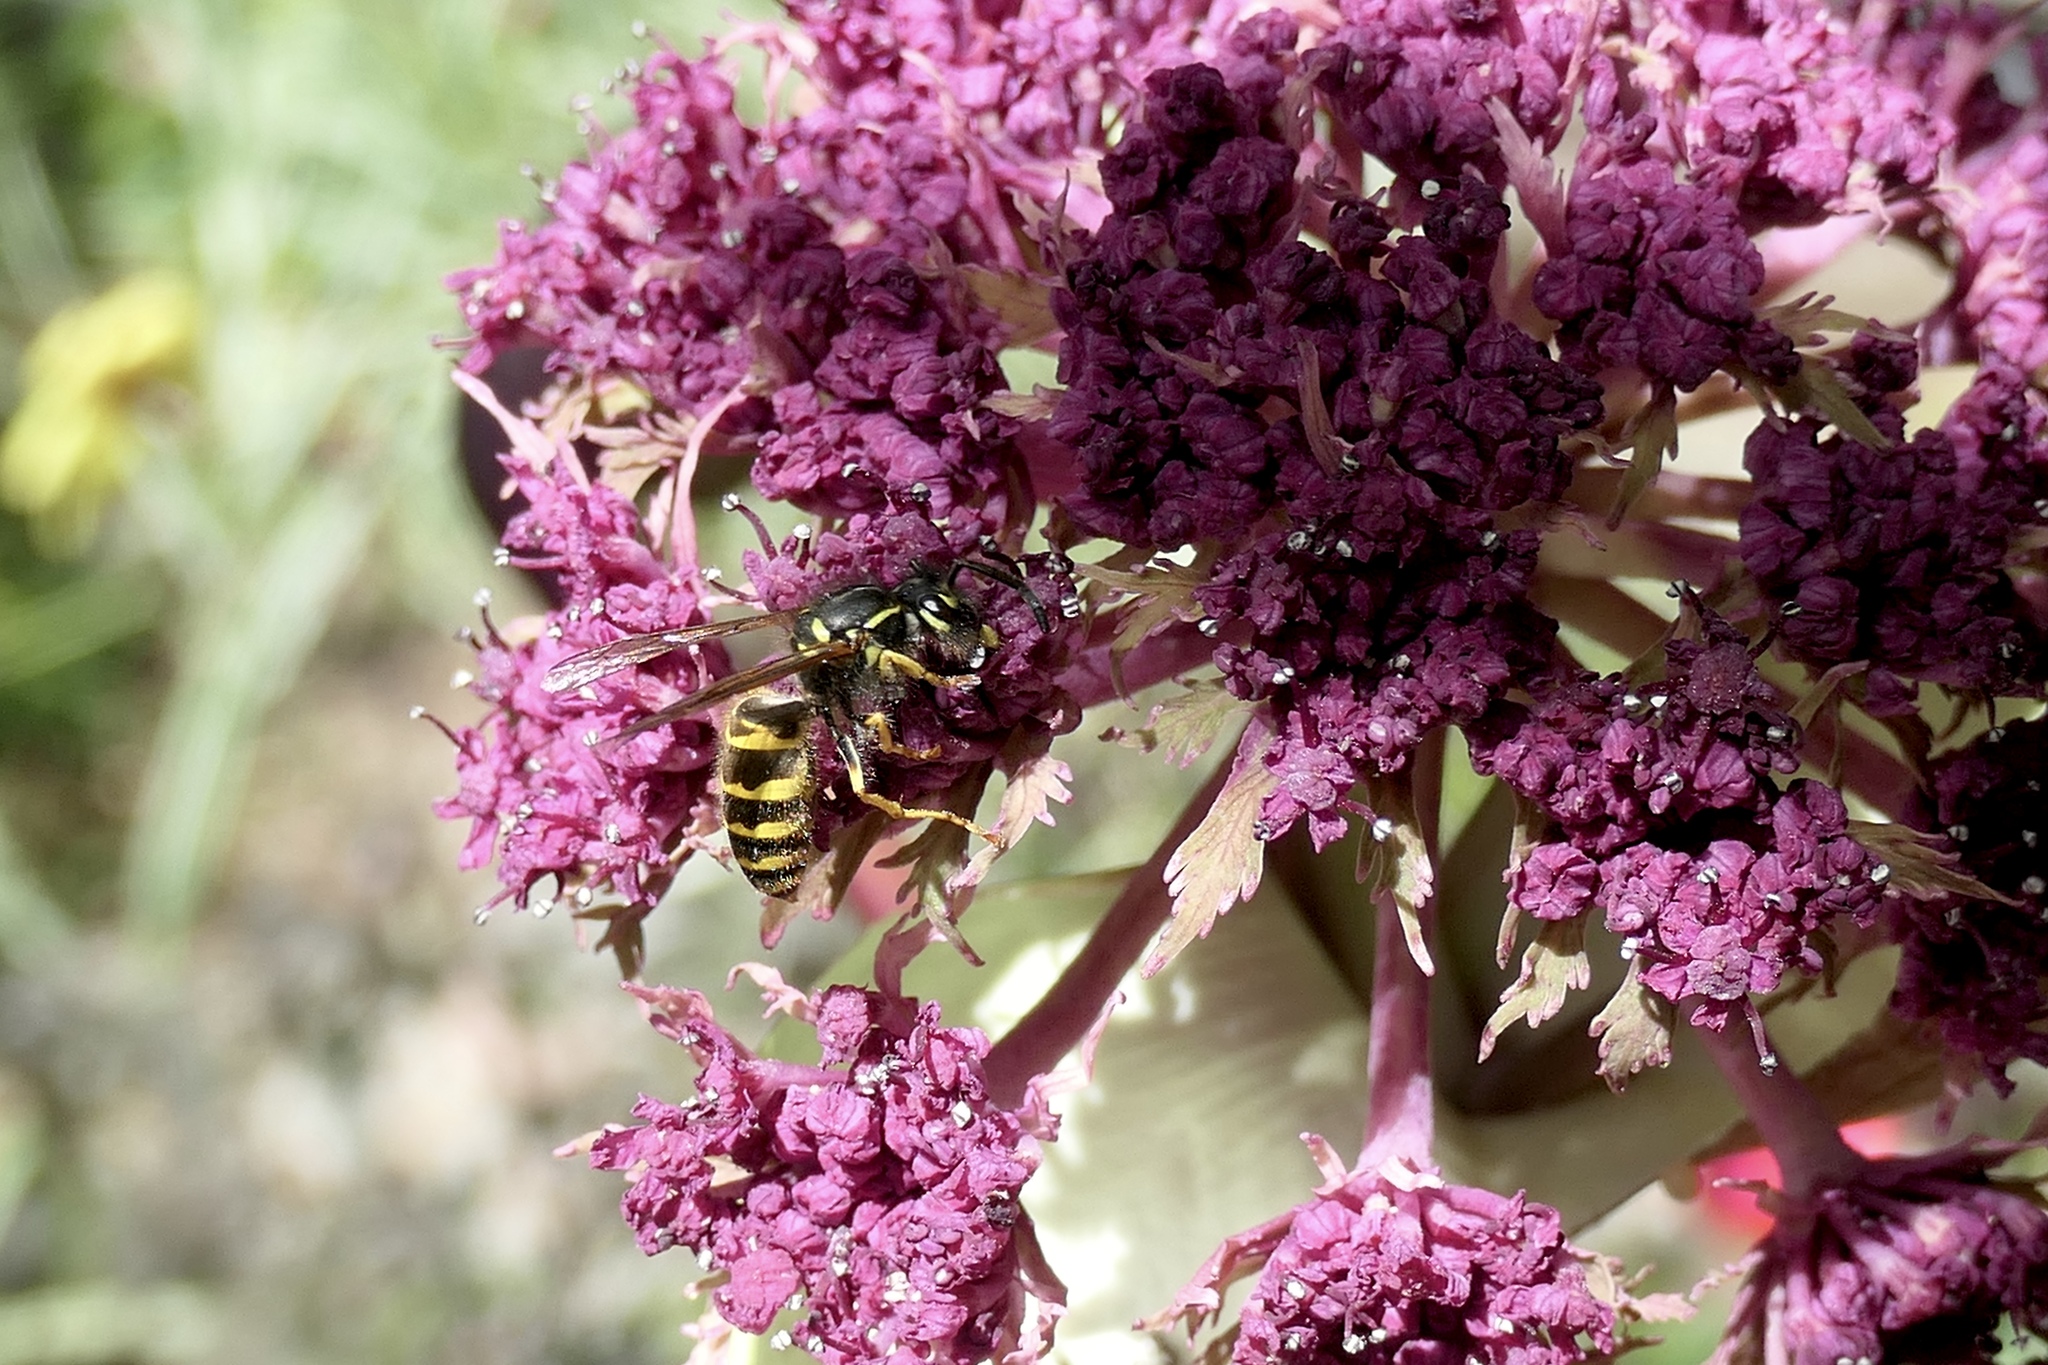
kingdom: Animalia
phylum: Arthropoda
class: Insecta
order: Hymenoptera
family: Vespidae
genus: Vespula
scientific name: Vespula alascensis
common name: Alaska yellowjacket
